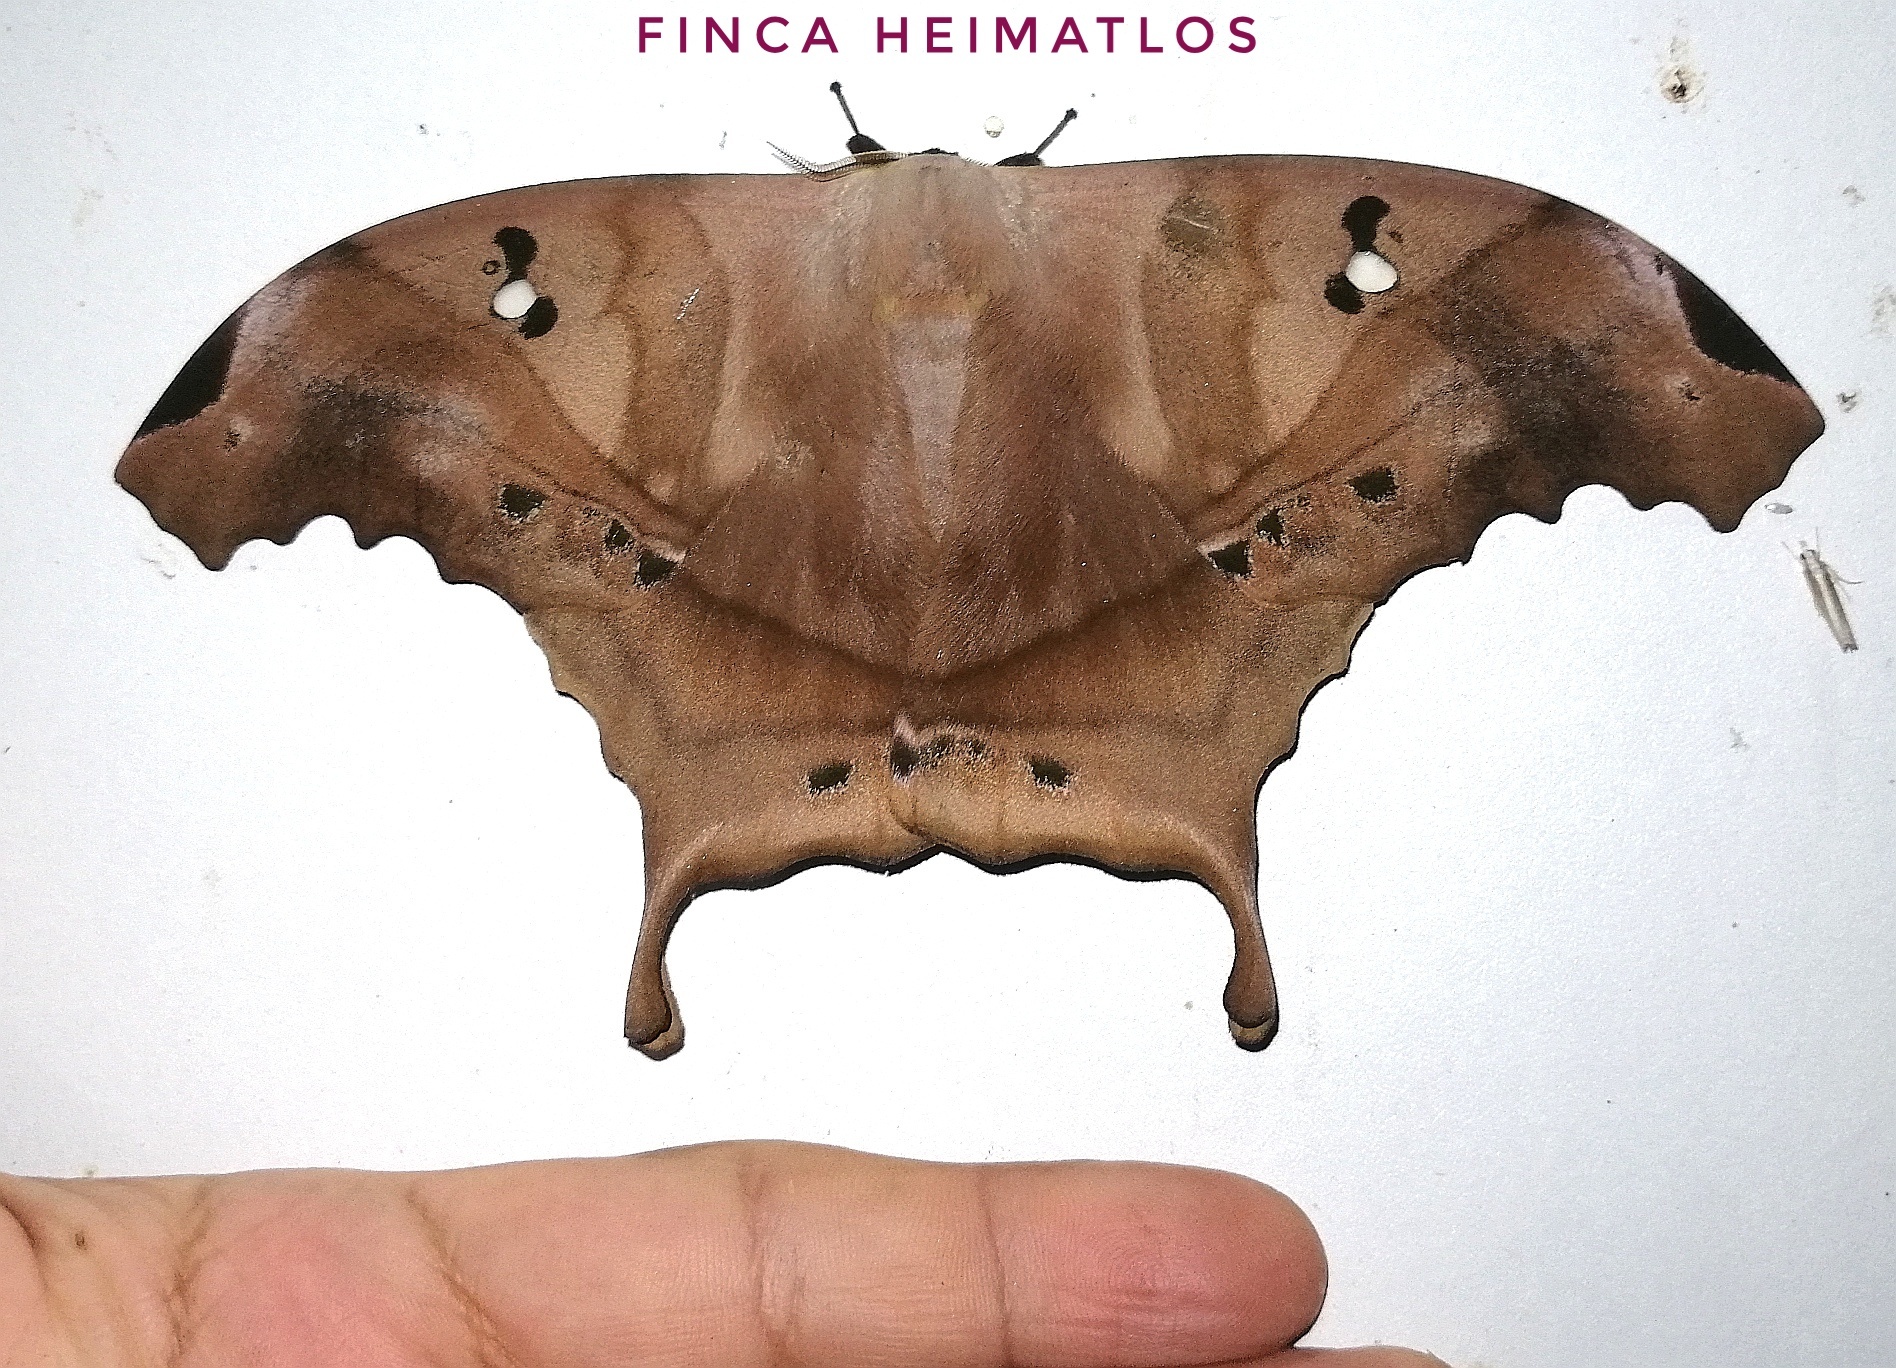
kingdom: Animalia
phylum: Arthropoda
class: Insecta
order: Lepidoptera
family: Saturniidae
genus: Titaea
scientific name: Titaea tamerlan
